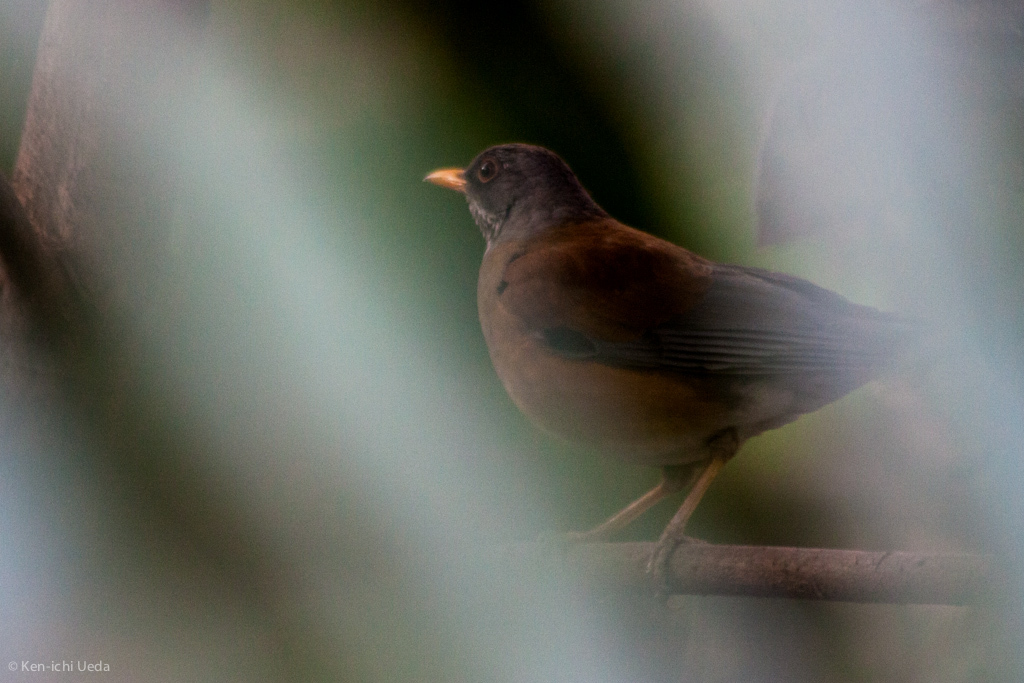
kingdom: Animalia
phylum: Chordata
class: Aves
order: Passeriformes
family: Turdidae
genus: Turdus
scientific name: Turdus rufopalliatus
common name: Rufous-backed robin
